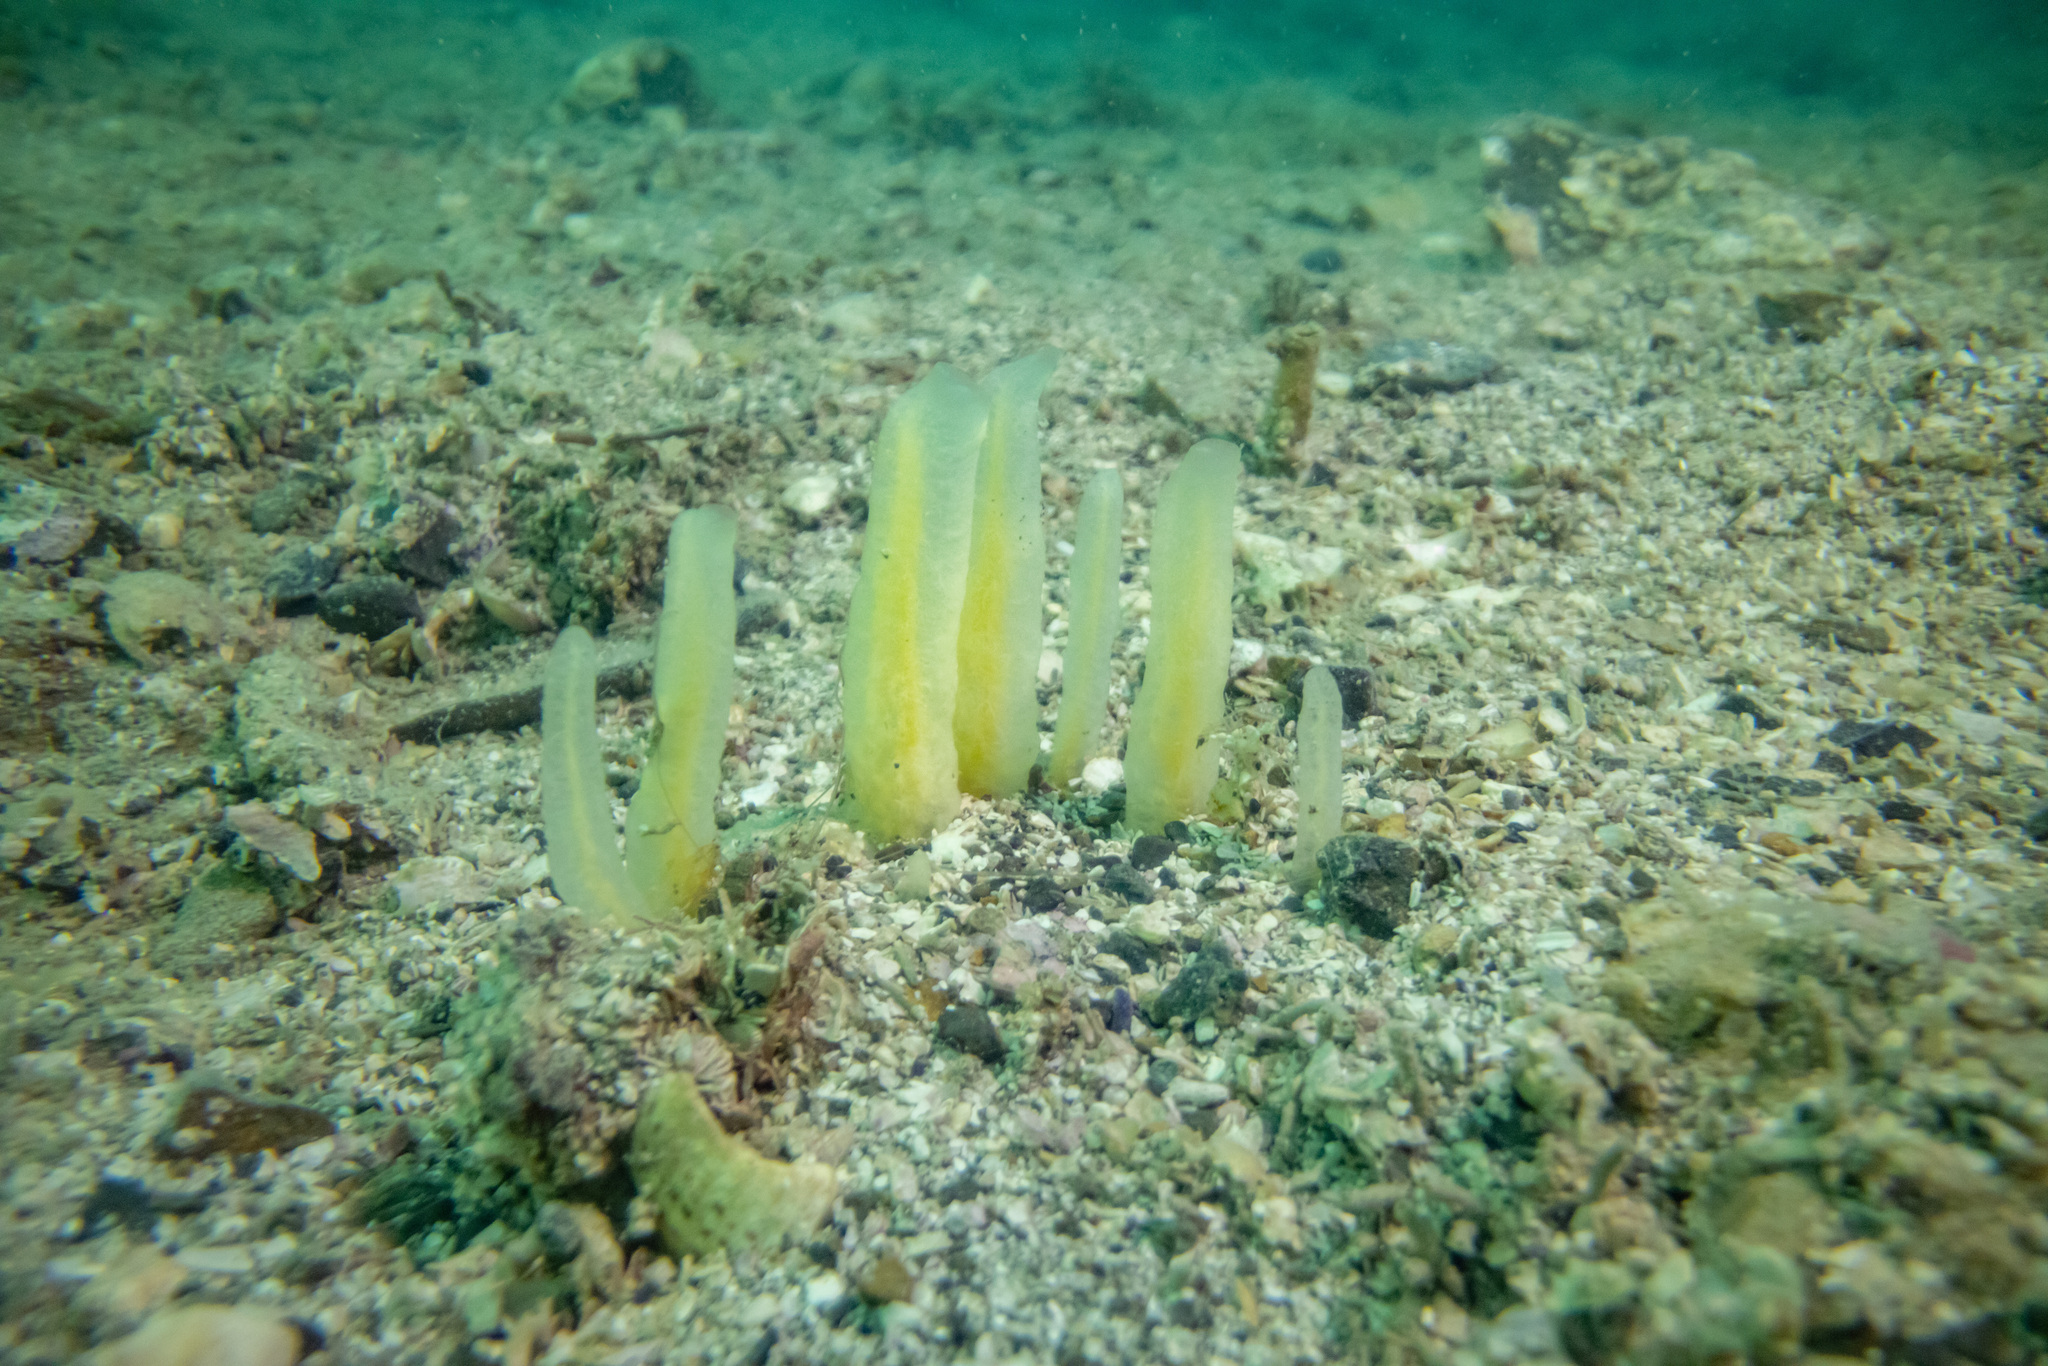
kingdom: Animalia
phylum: Porifera
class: Demospongiae
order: Suberitida
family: Halichondriidae
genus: Ciocalypta
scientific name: Ciocalypta polymastia
